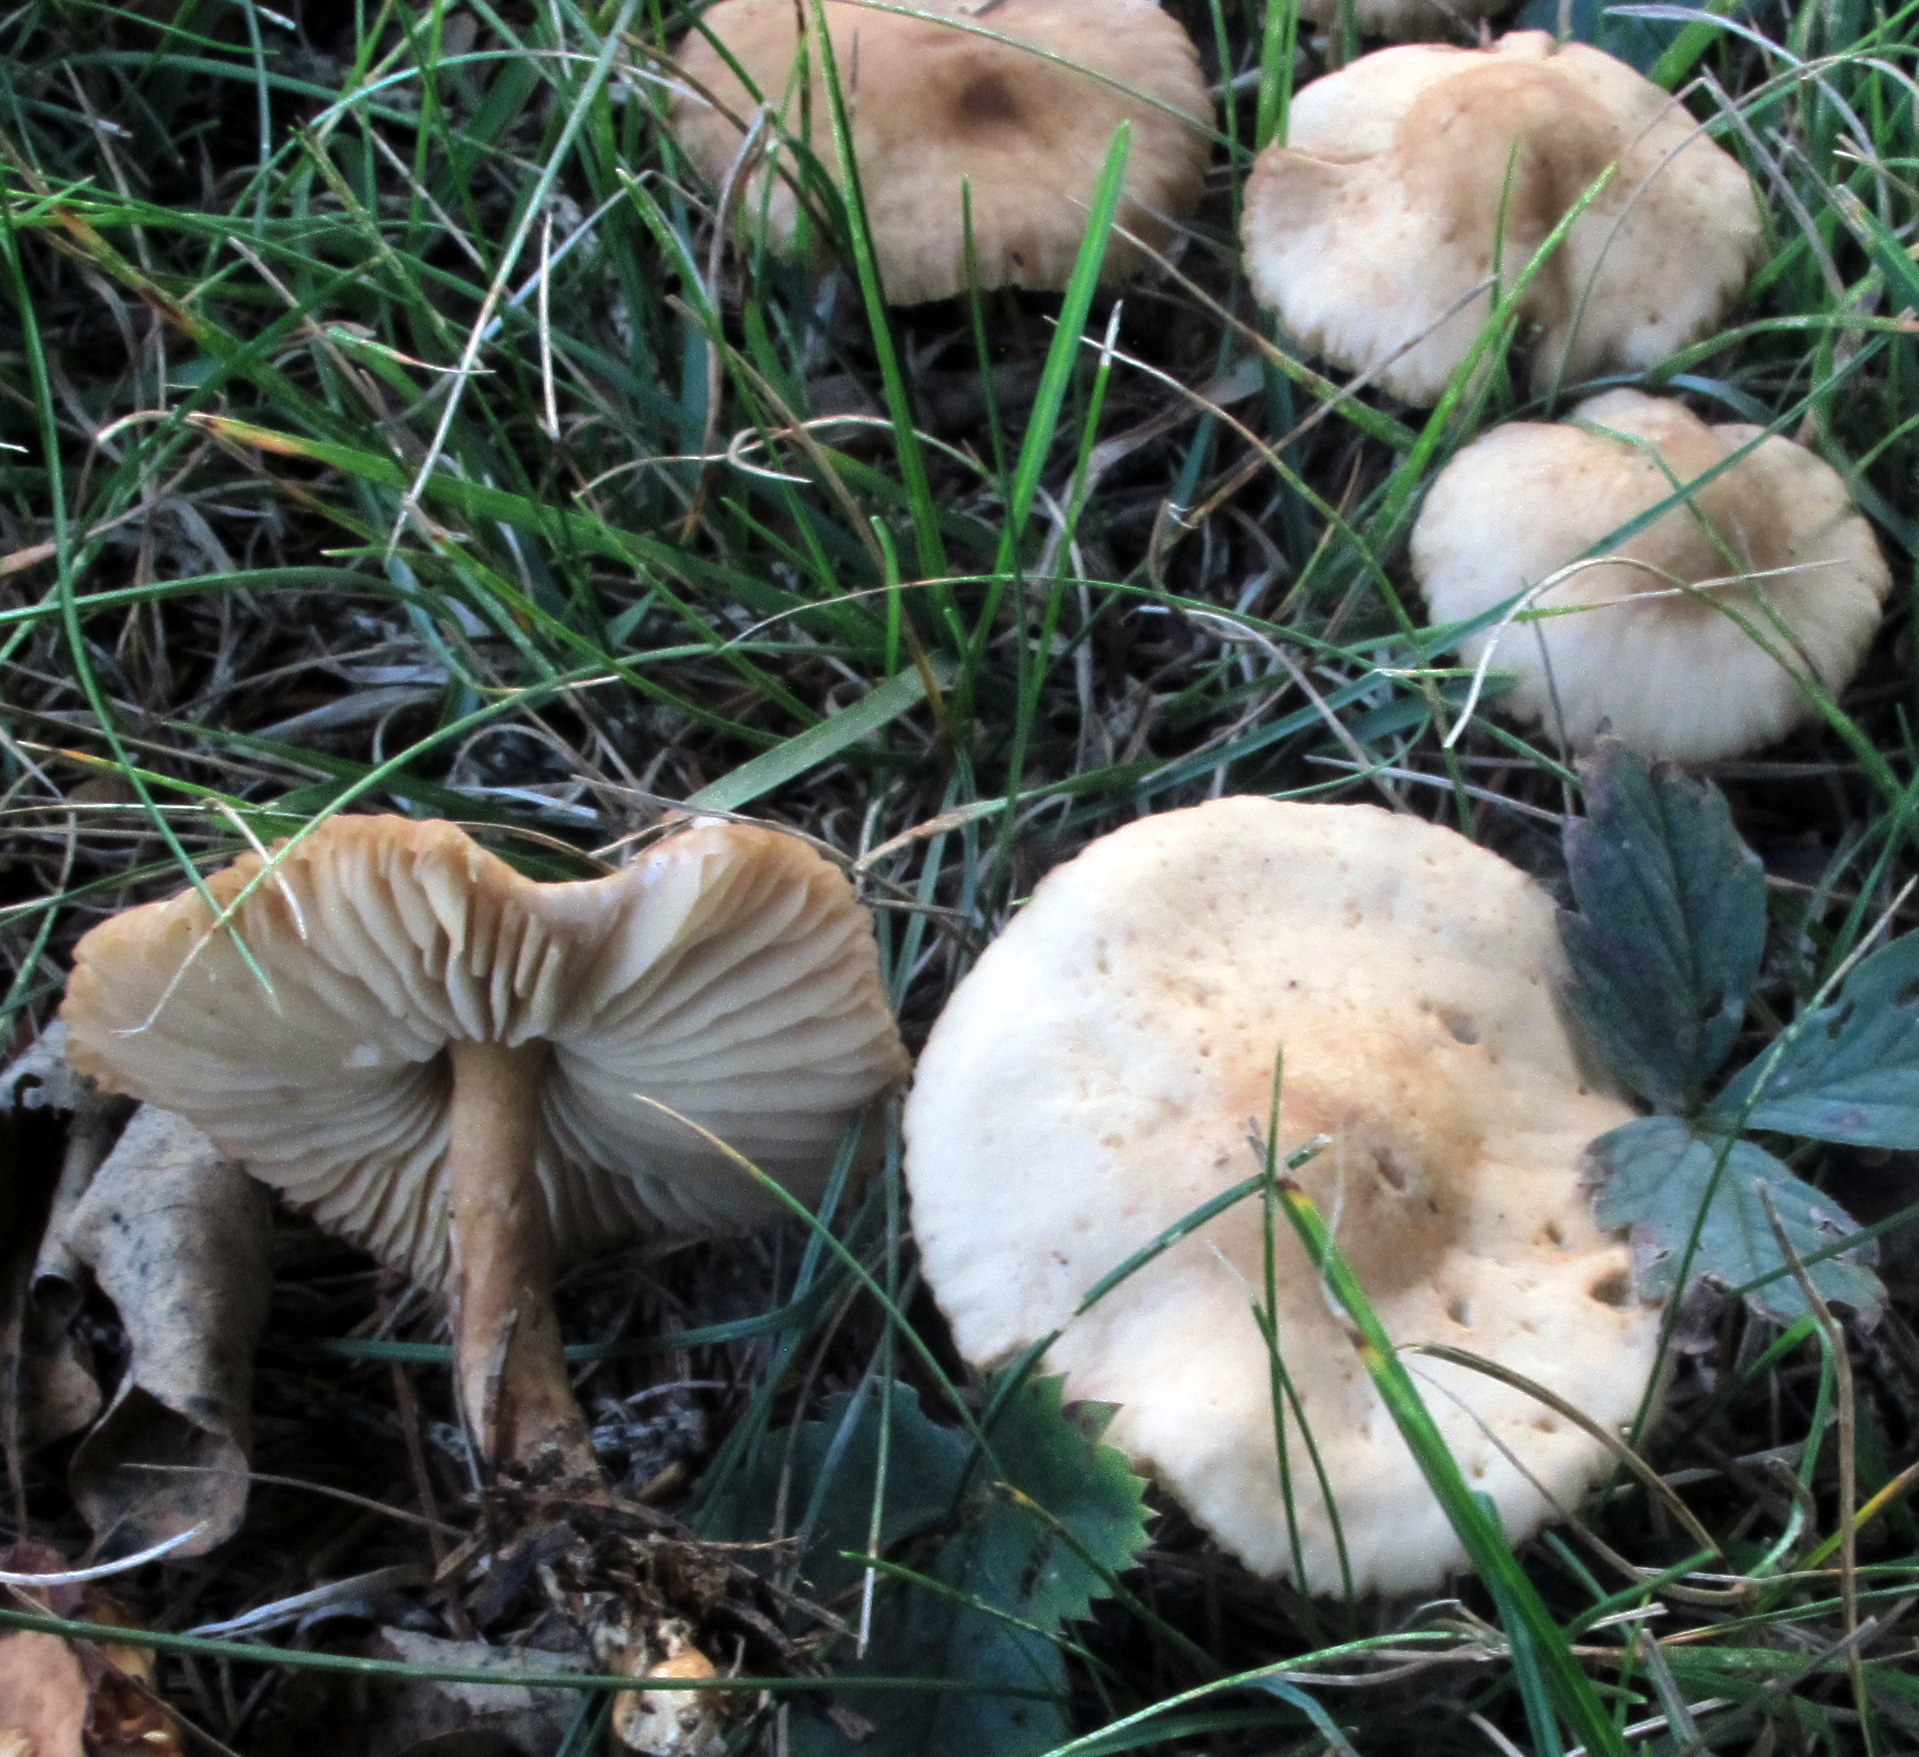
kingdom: Fungi
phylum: Basidiomycota
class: Agaricomycetes
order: Agaricales
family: Marasmiaceae
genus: Marasmius
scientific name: Marasmius oreades
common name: Fairy ring champignon
